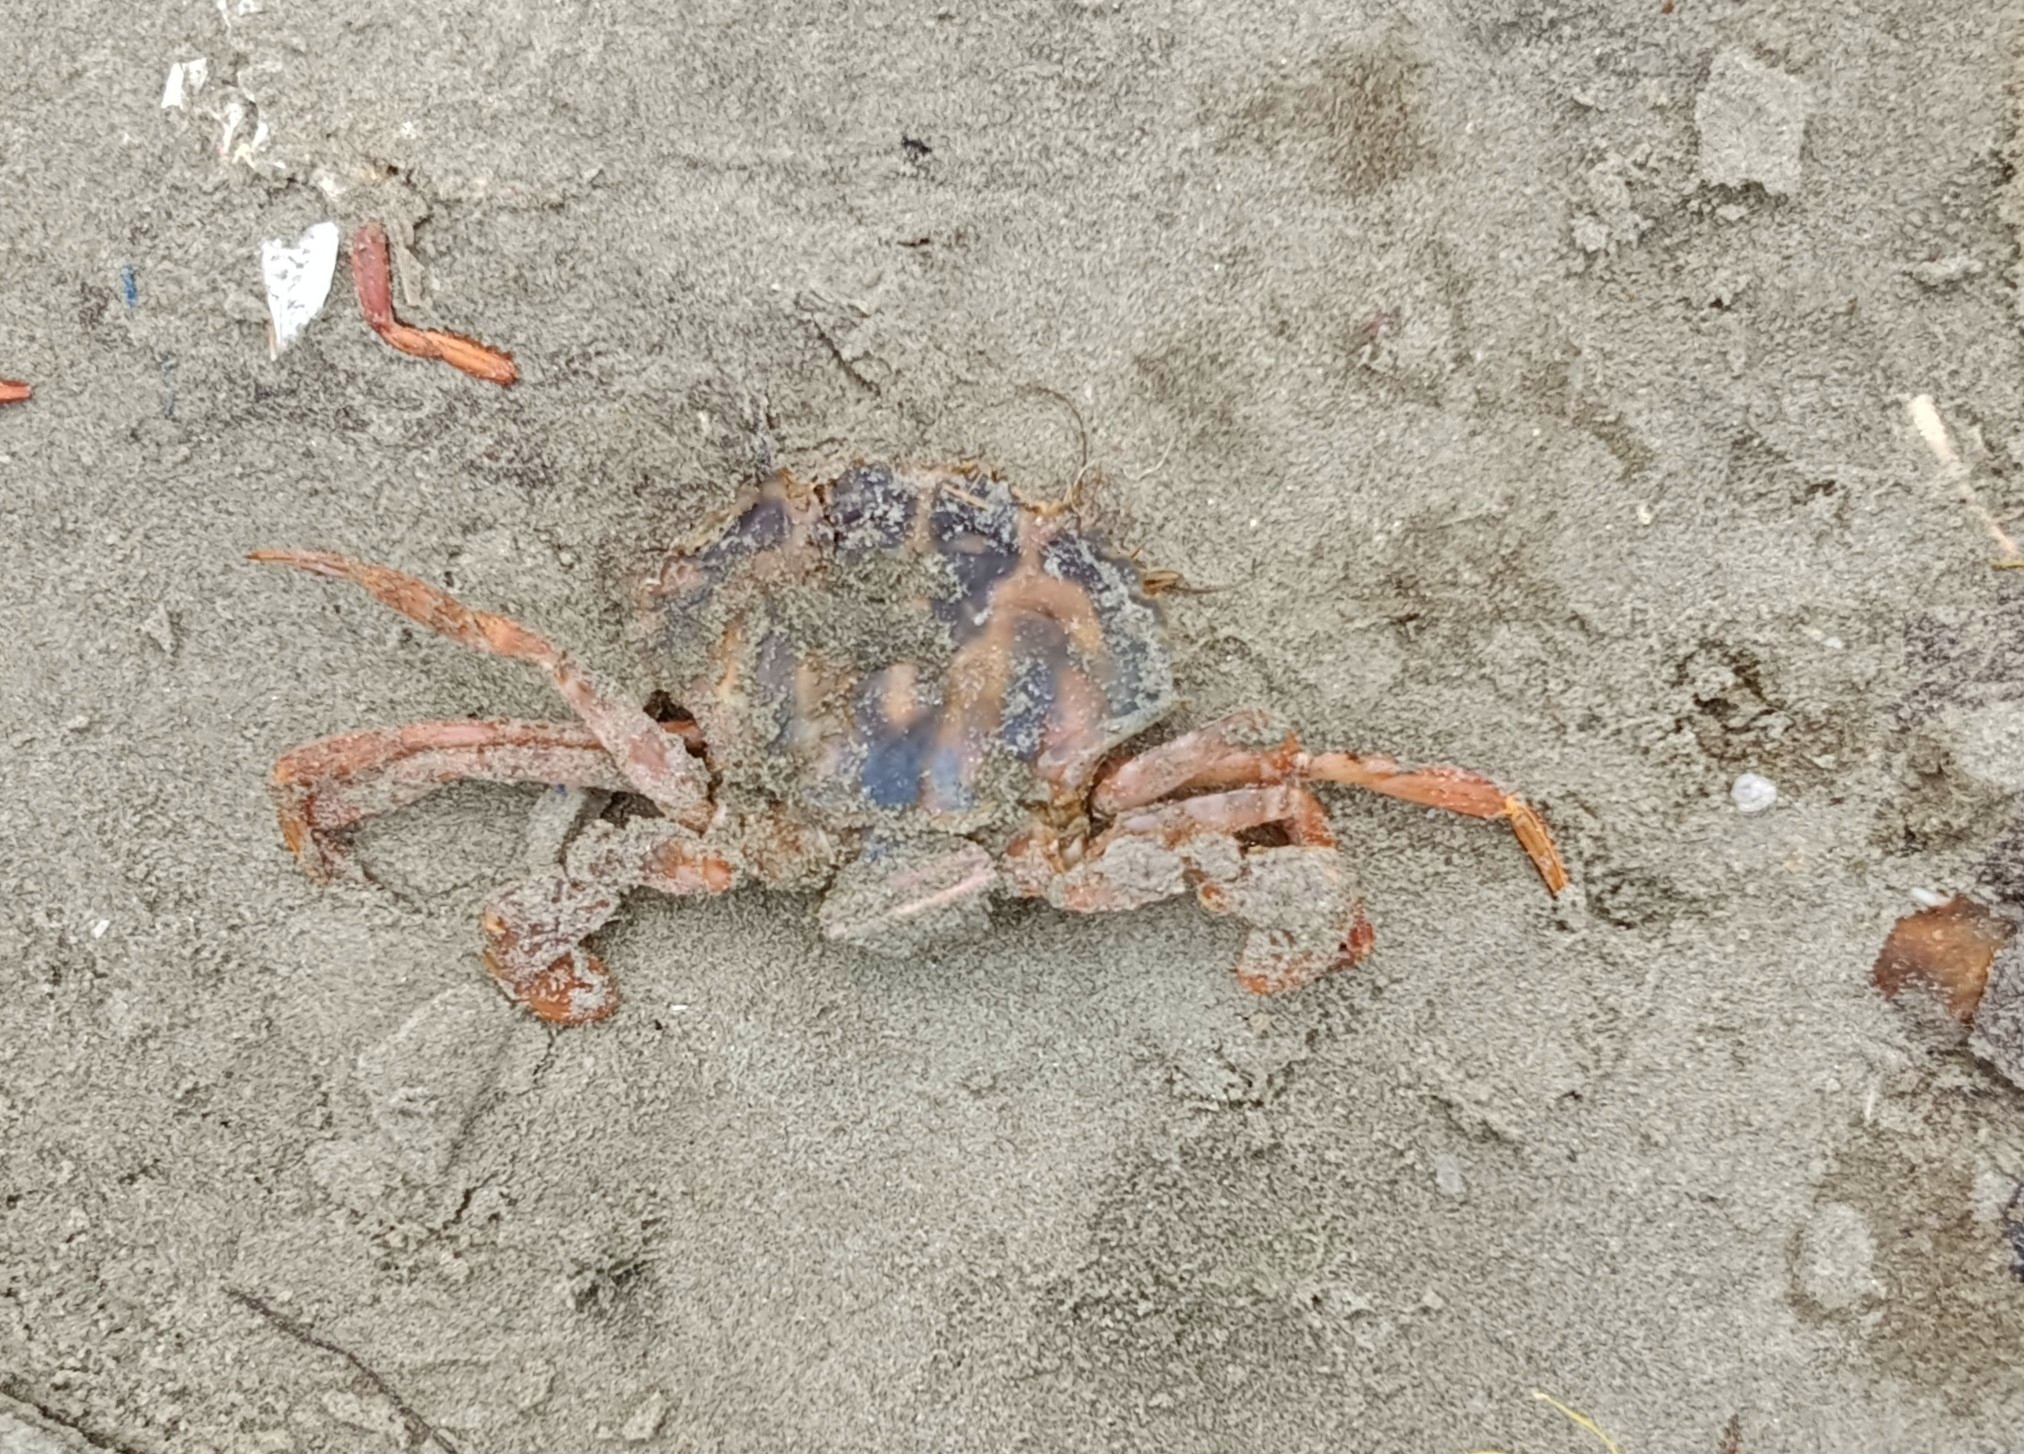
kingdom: Animalia
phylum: Arthropoda
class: Malacostraca
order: Decapoda
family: Portunidae
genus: Charybdis
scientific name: Charybdis feriata
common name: Striped swimming crab
